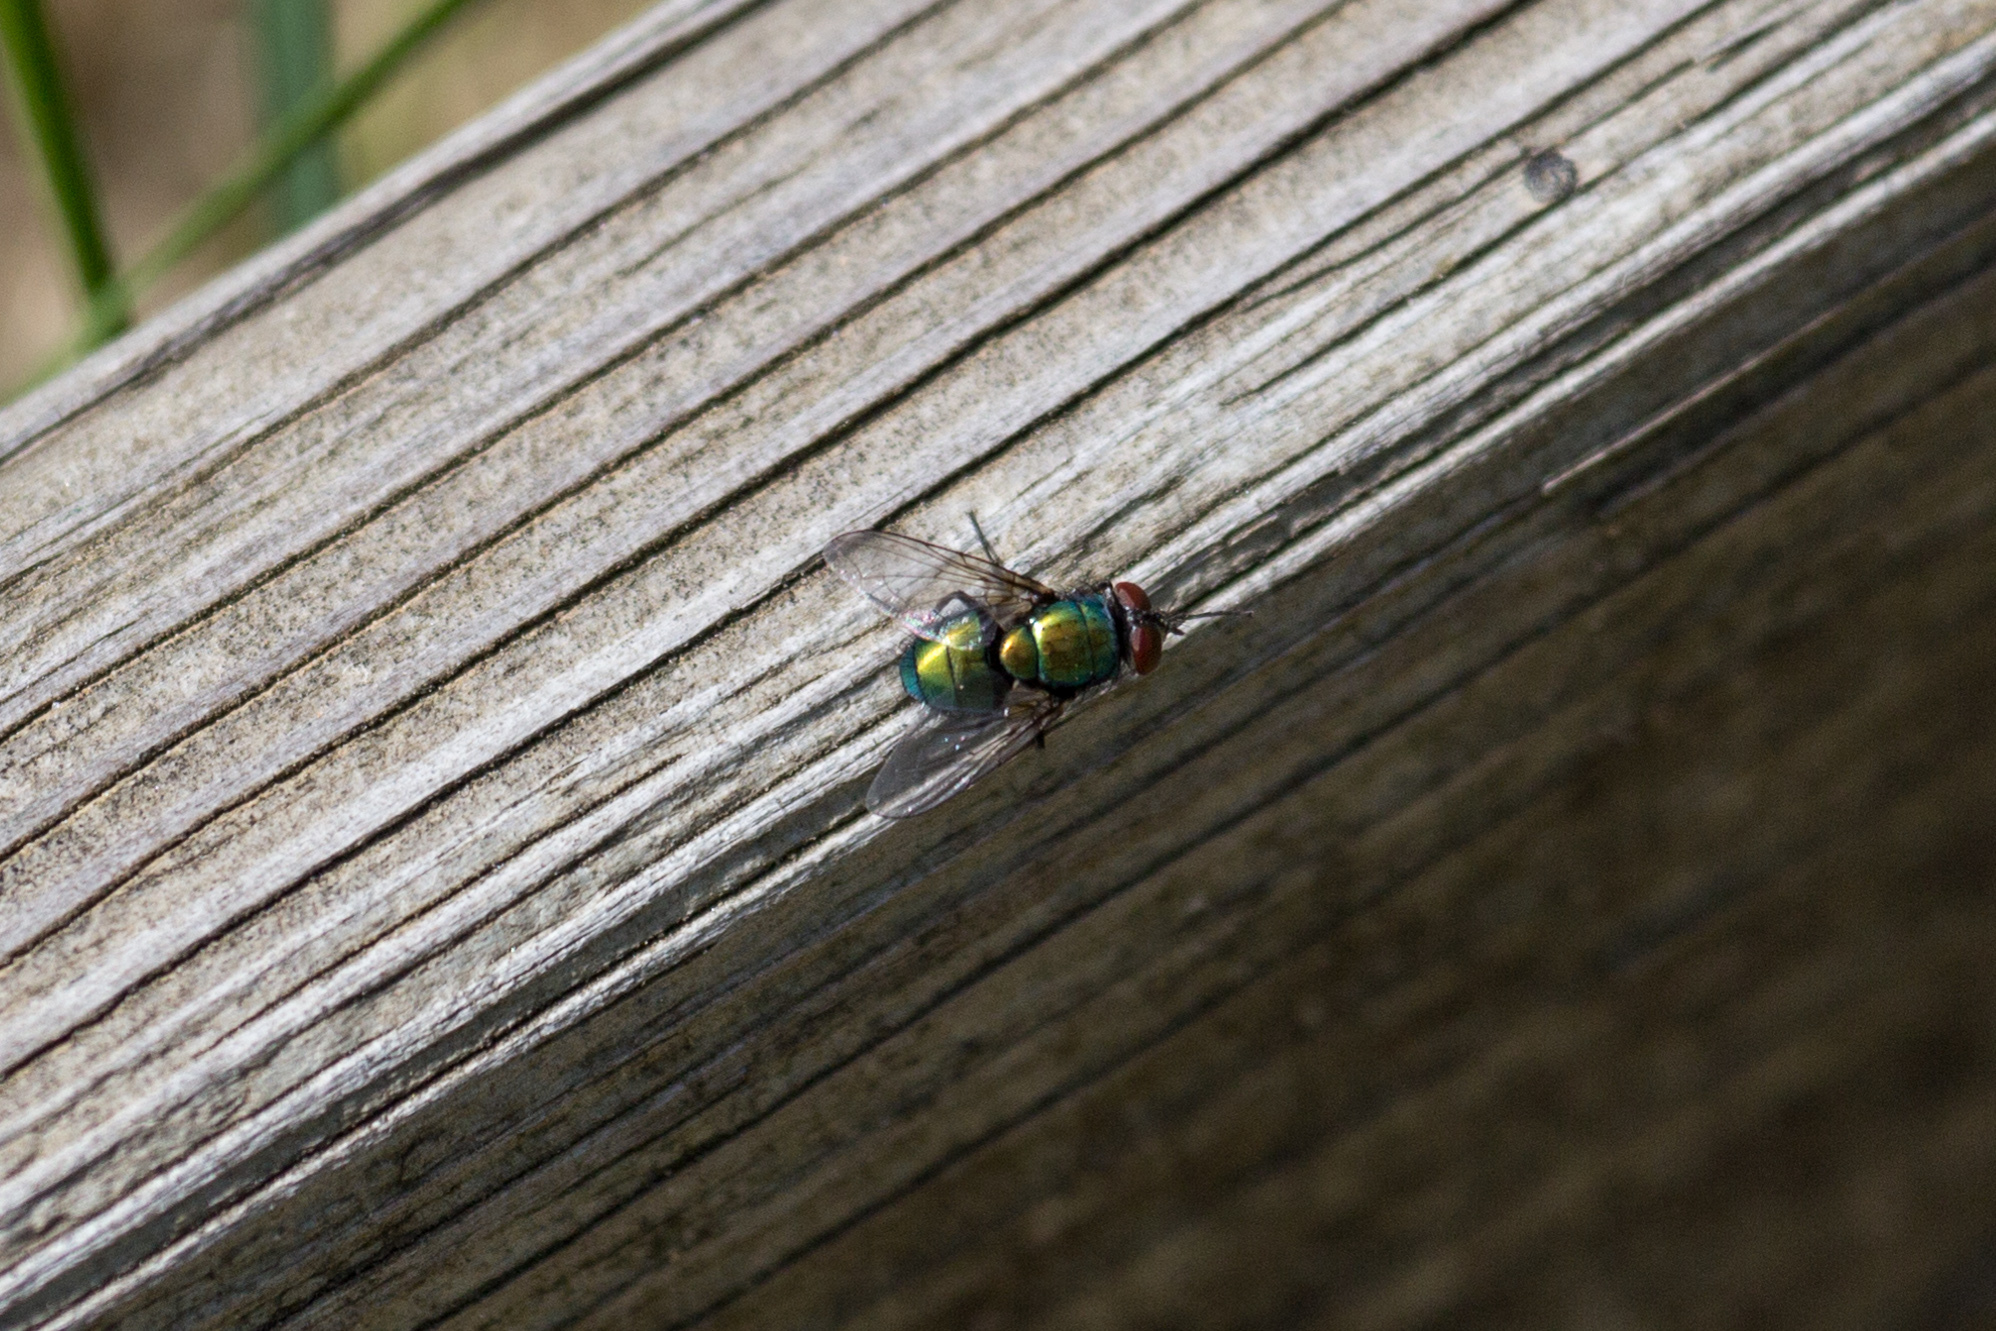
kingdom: Animalia
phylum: Arthropoda
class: Insecta
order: Diptera
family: Calliphoridae
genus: Lucilia
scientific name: Lucilia sericata
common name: Blow fly
